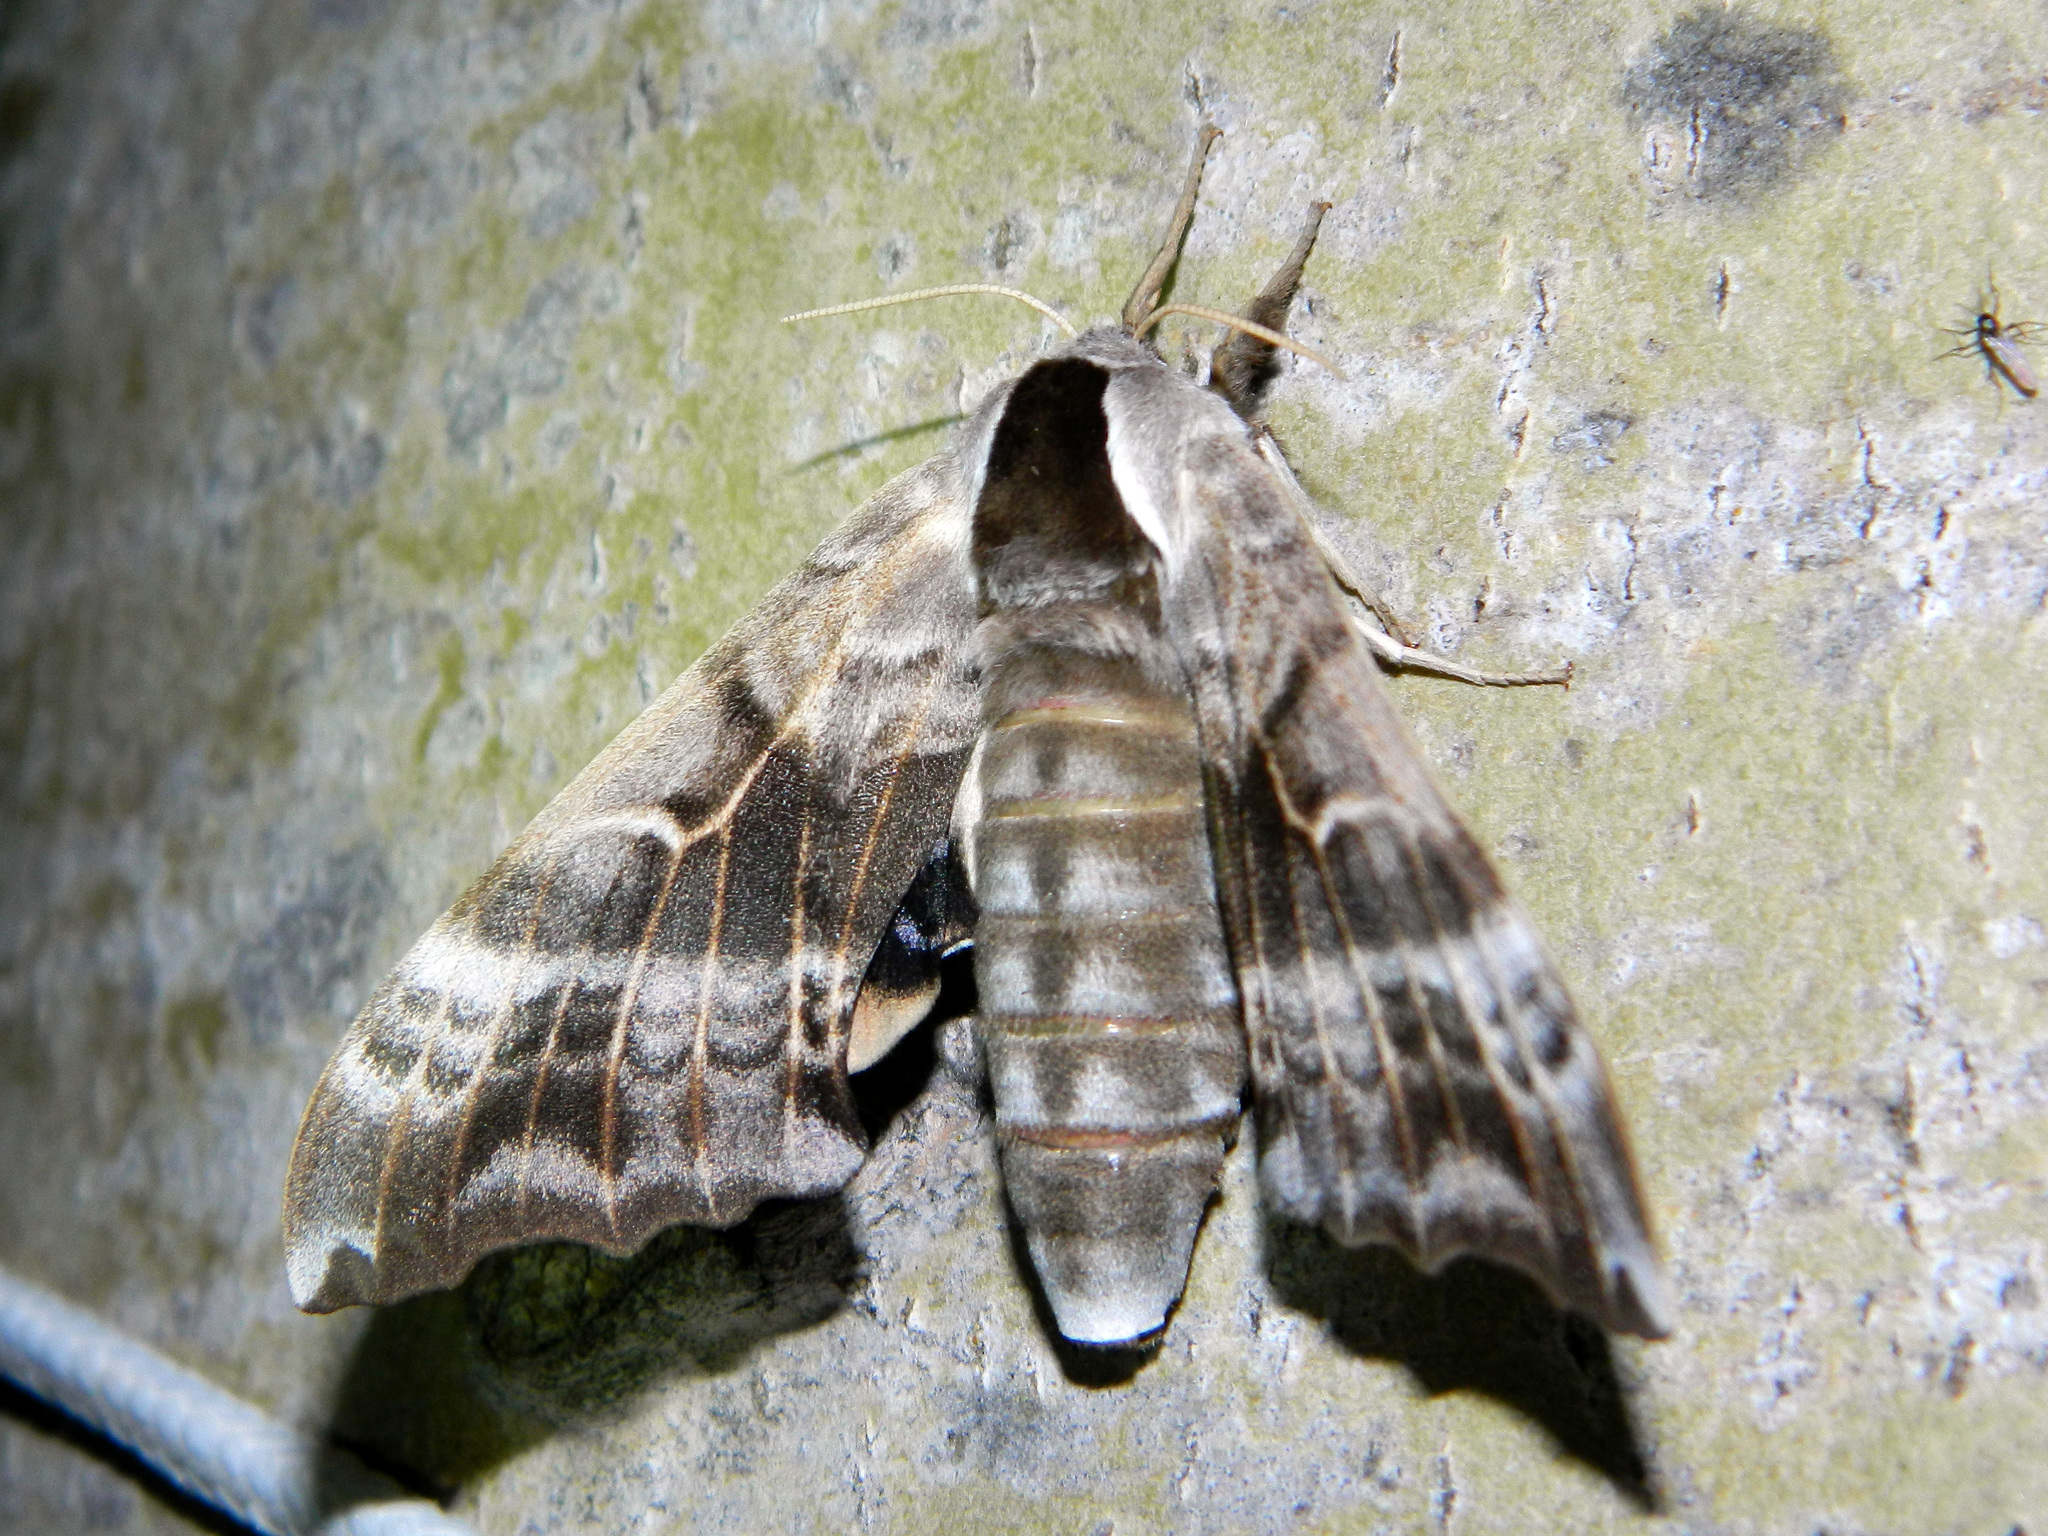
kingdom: Animalia
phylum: Arthropoda
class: Insecta
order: Lepidoptera
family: Sphingidae
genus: Smerinthus
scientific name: Smerinthus cerisyi
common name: Cerisy's sphinx moth
